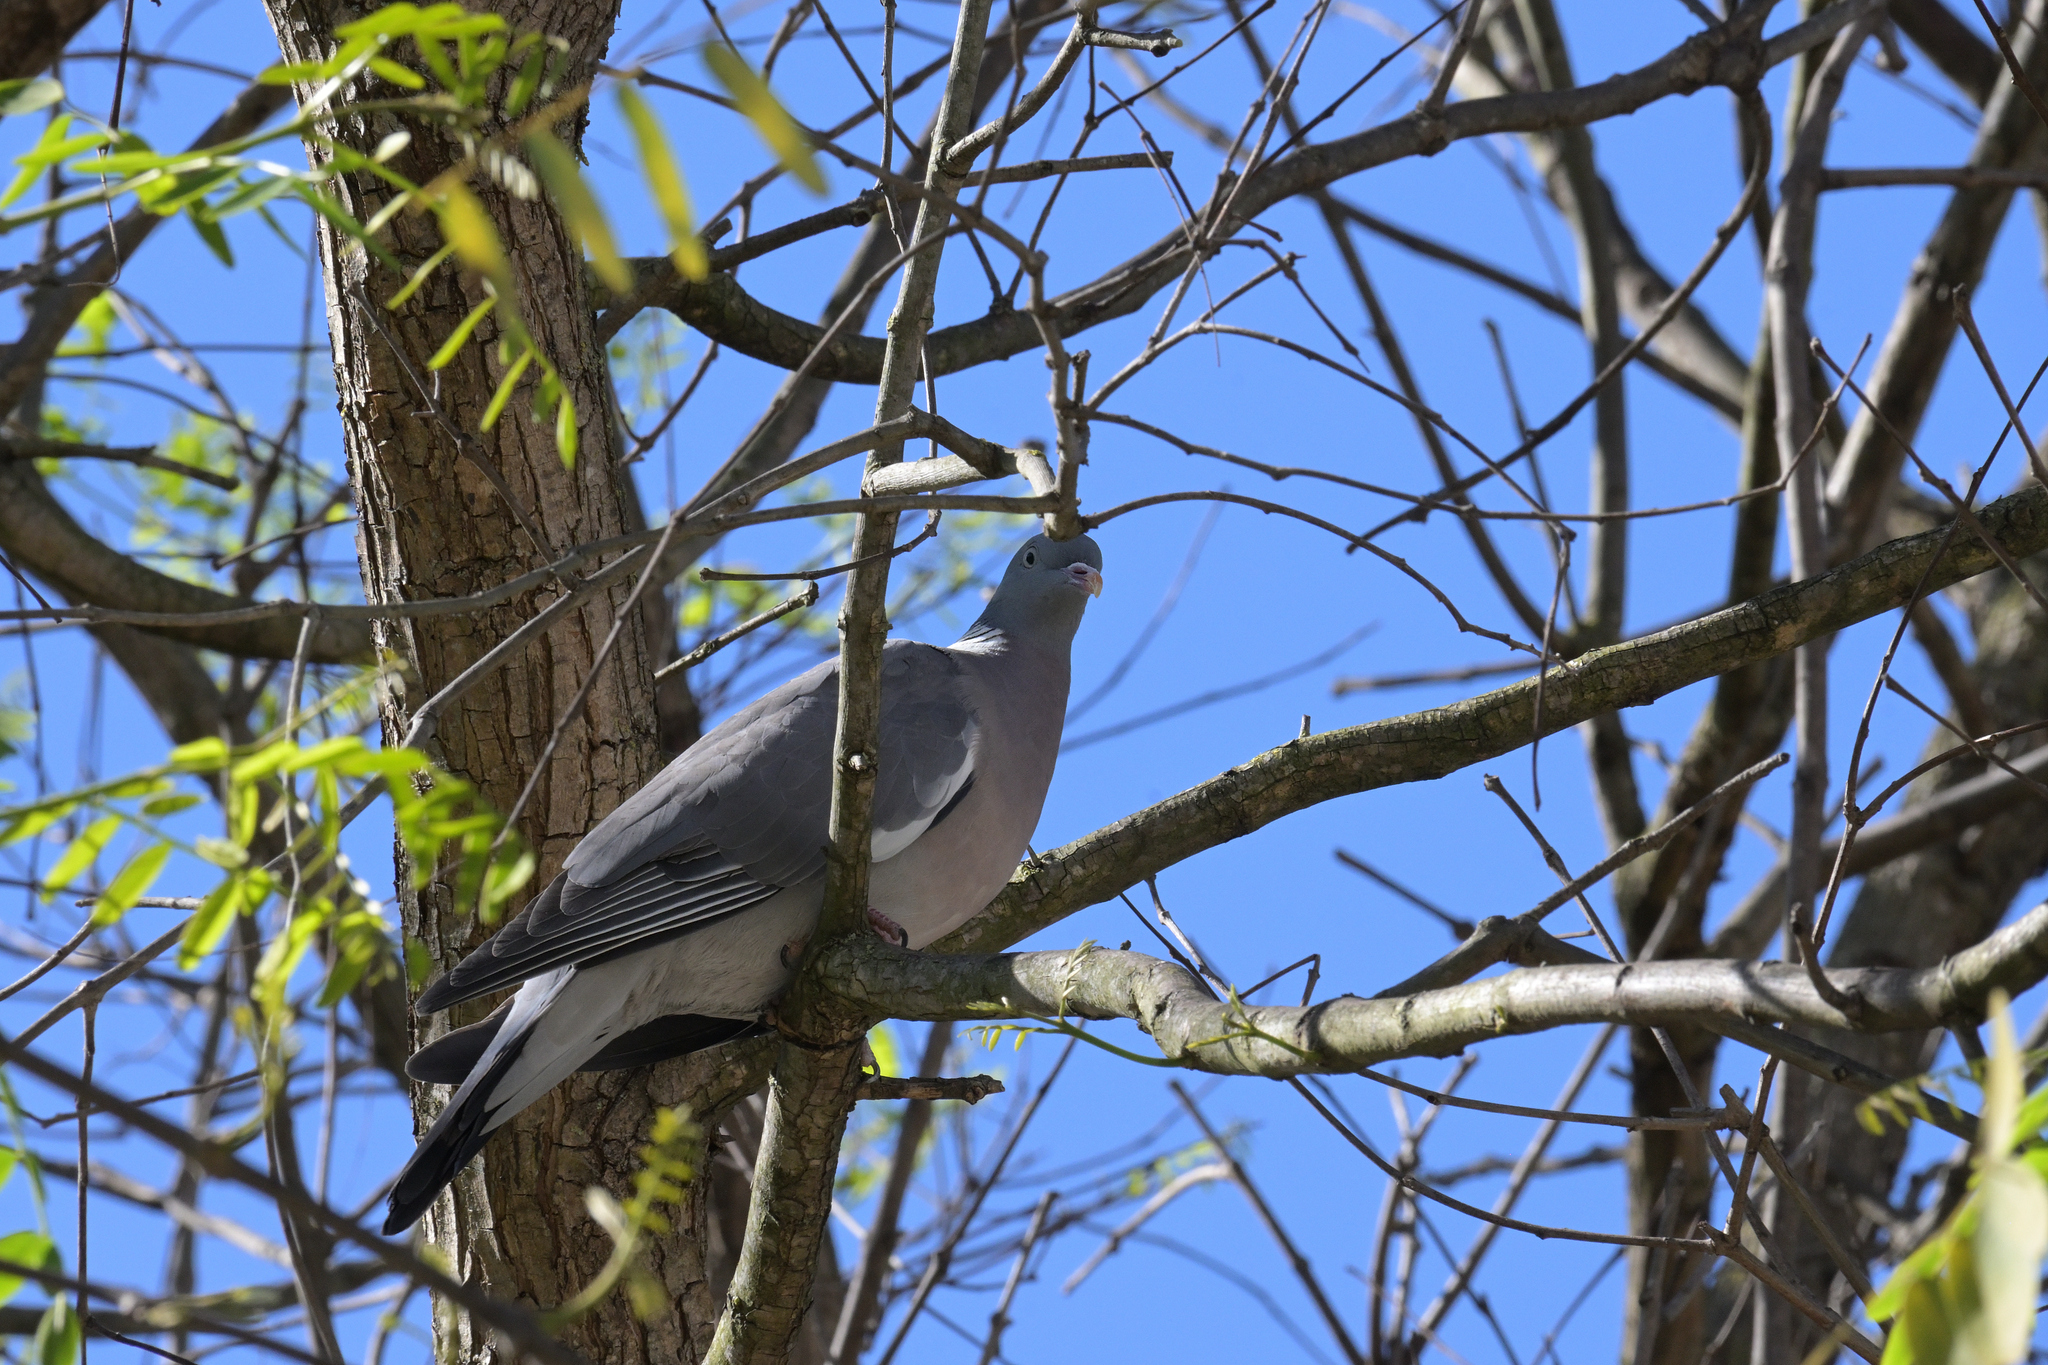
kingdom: Animalia
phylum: Chordata
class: Aves
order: Columbiformes
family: Columbidae
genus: Columba
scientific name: Columba palumbus
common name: Common wood pigeon
